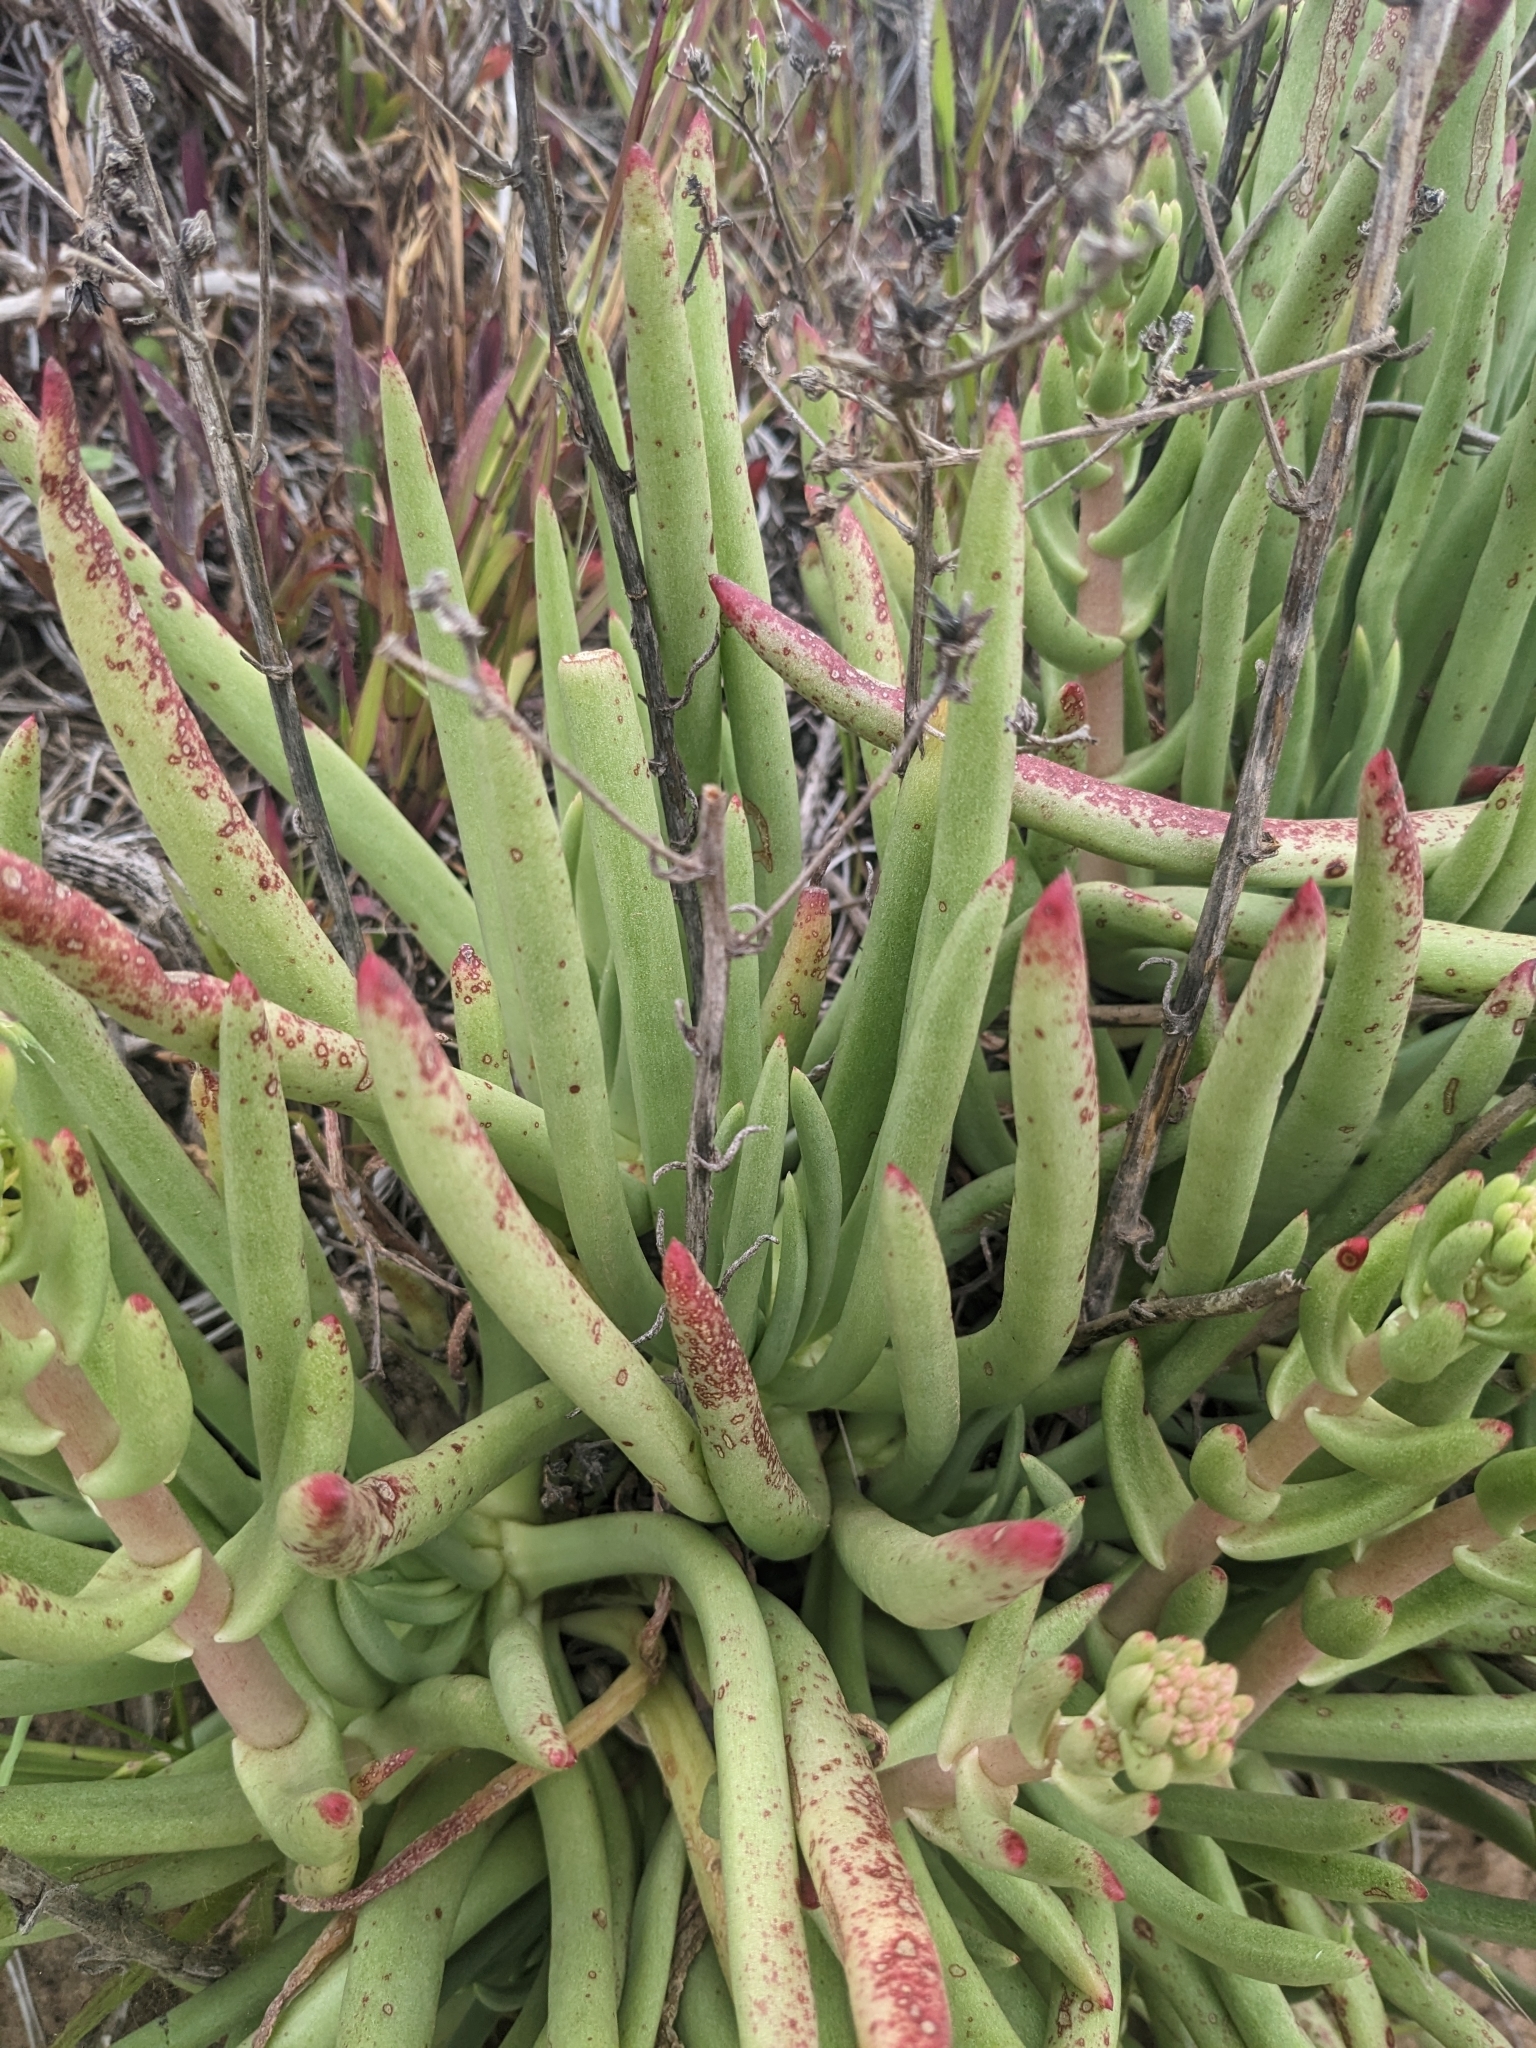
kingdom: Plantae
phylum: Tracheophyta
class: Magnoliopsida
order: Saxifragales
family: Crassulaceae
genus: Dudleya
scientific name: Dudleya edulis
